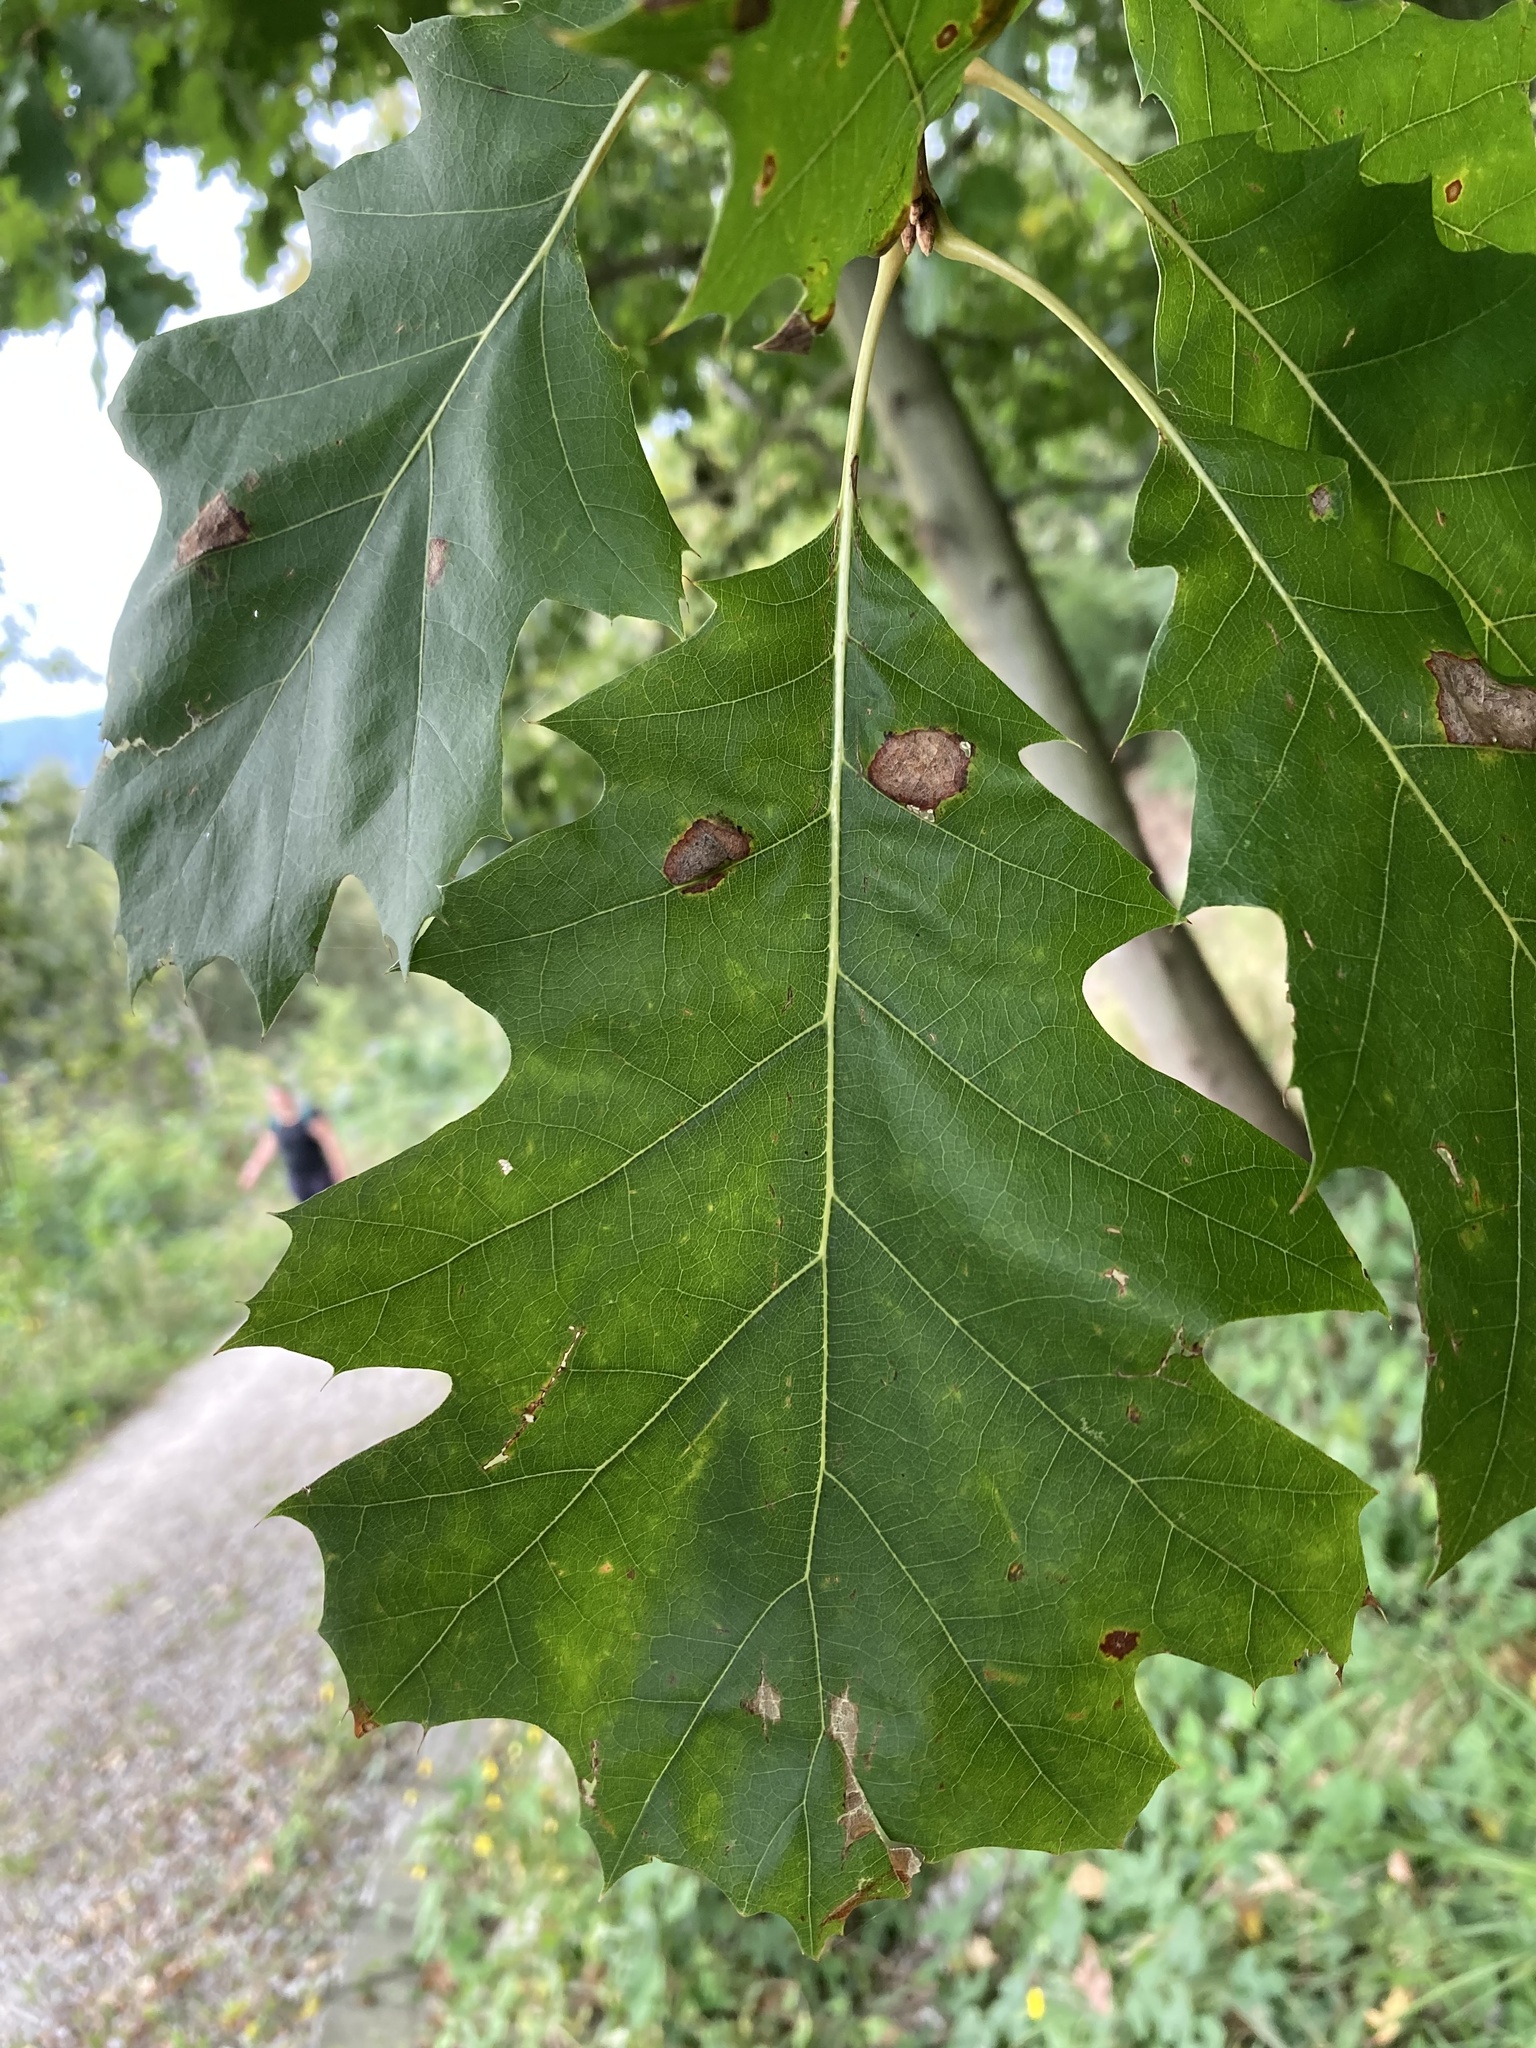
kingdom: Plantae
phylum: Tracheophyta
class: Magnoliopsida
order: Fagales
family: Fagaceae
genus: Quercus
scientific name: Quercus rubra
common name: Red oak
